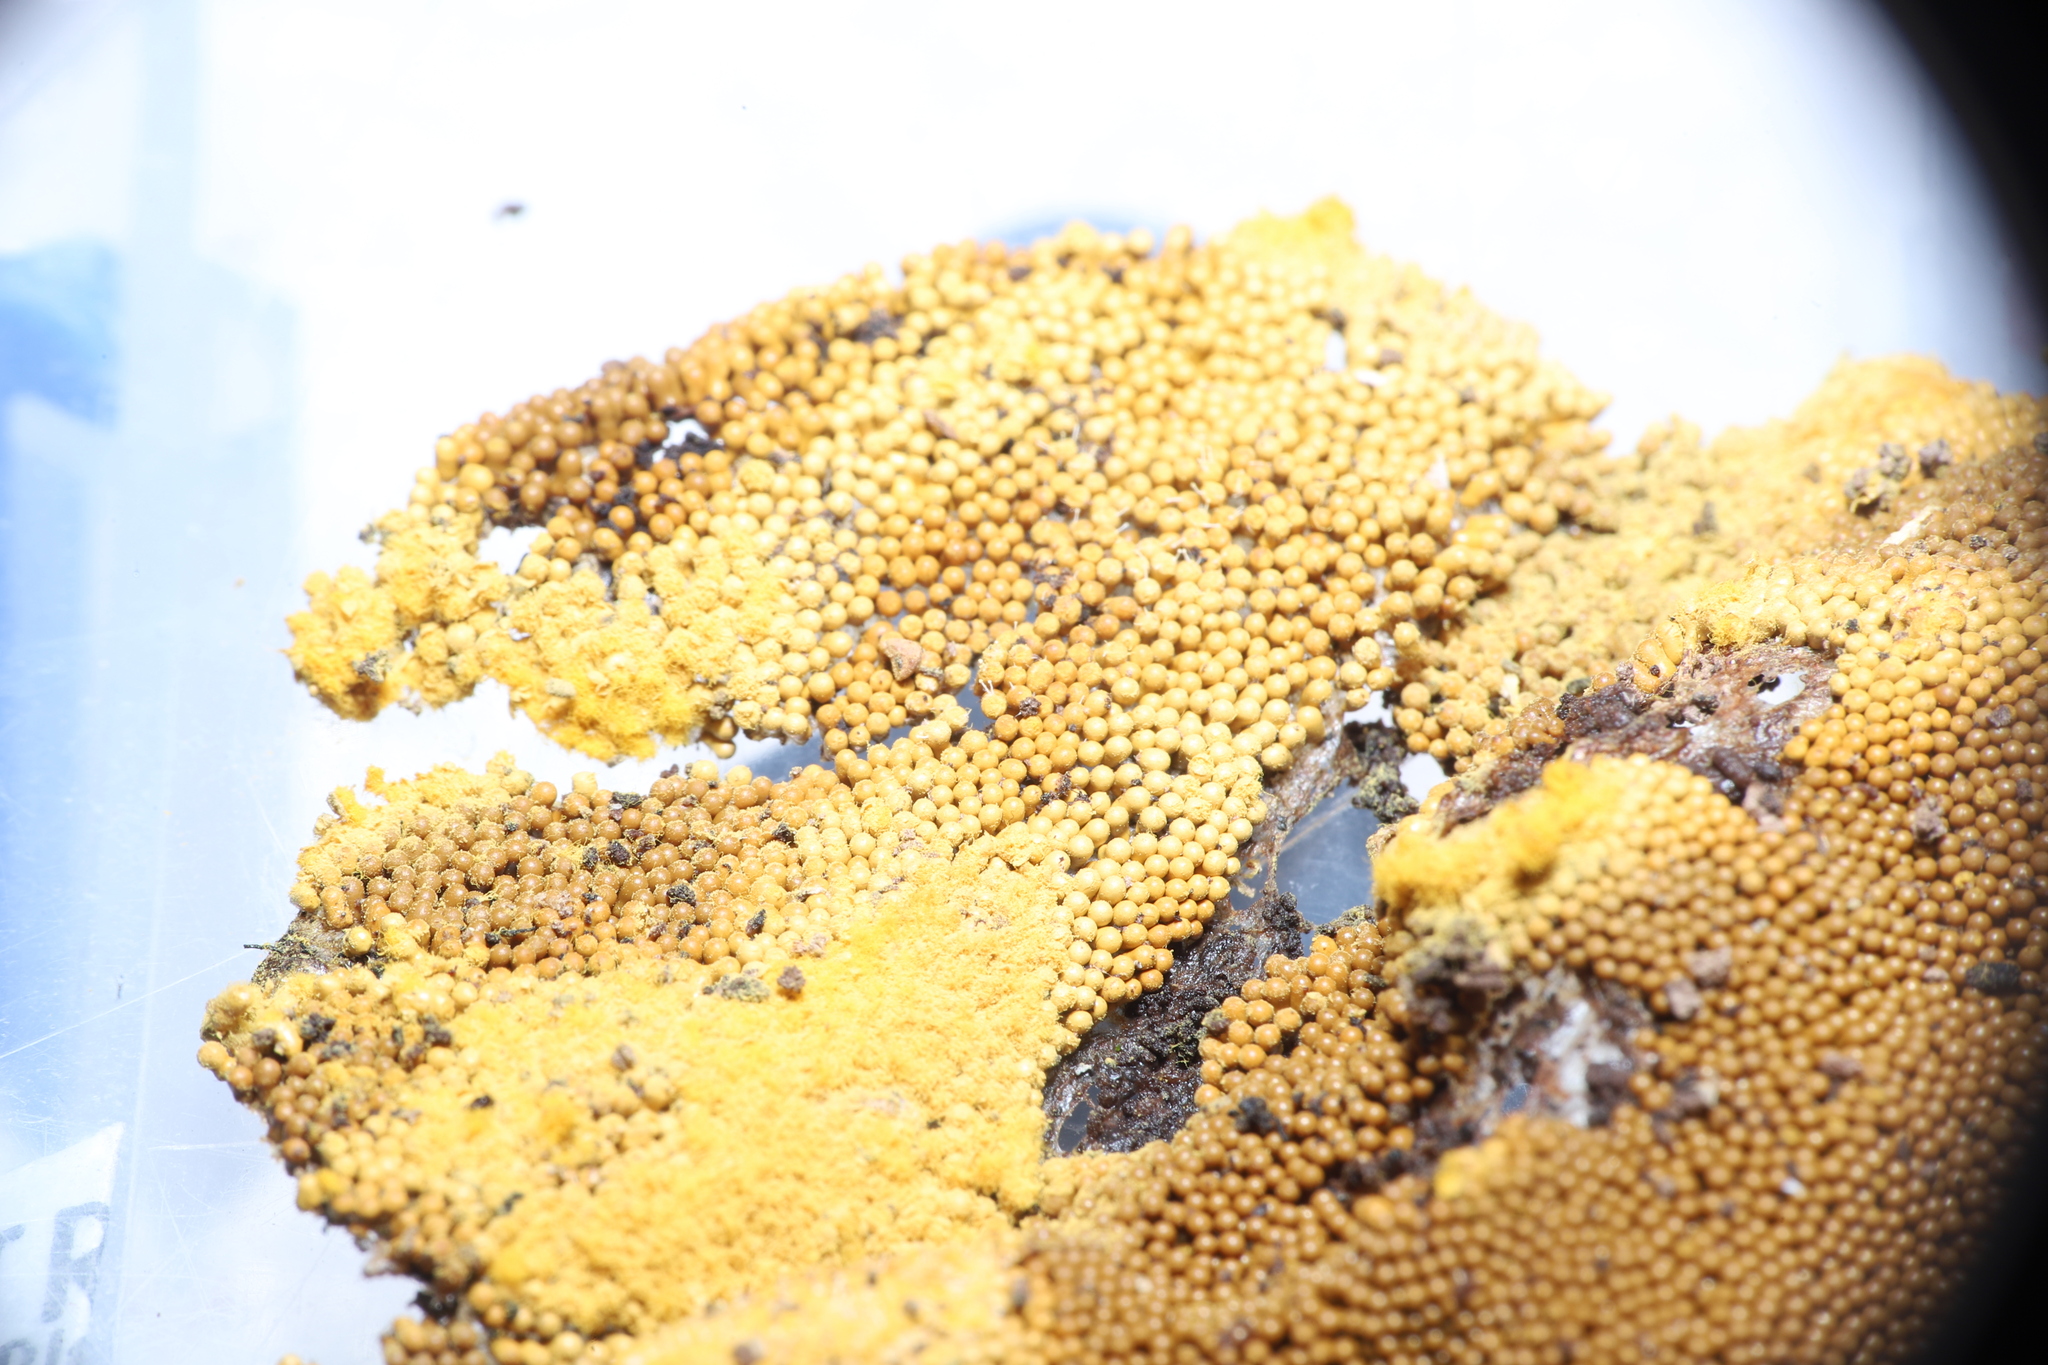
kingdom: Protozoa
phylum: Mycetozoa
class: Myxomycetes
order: Trichiales
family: Trichiaceae
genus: Oligonema
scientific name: Oligonema favogineum
